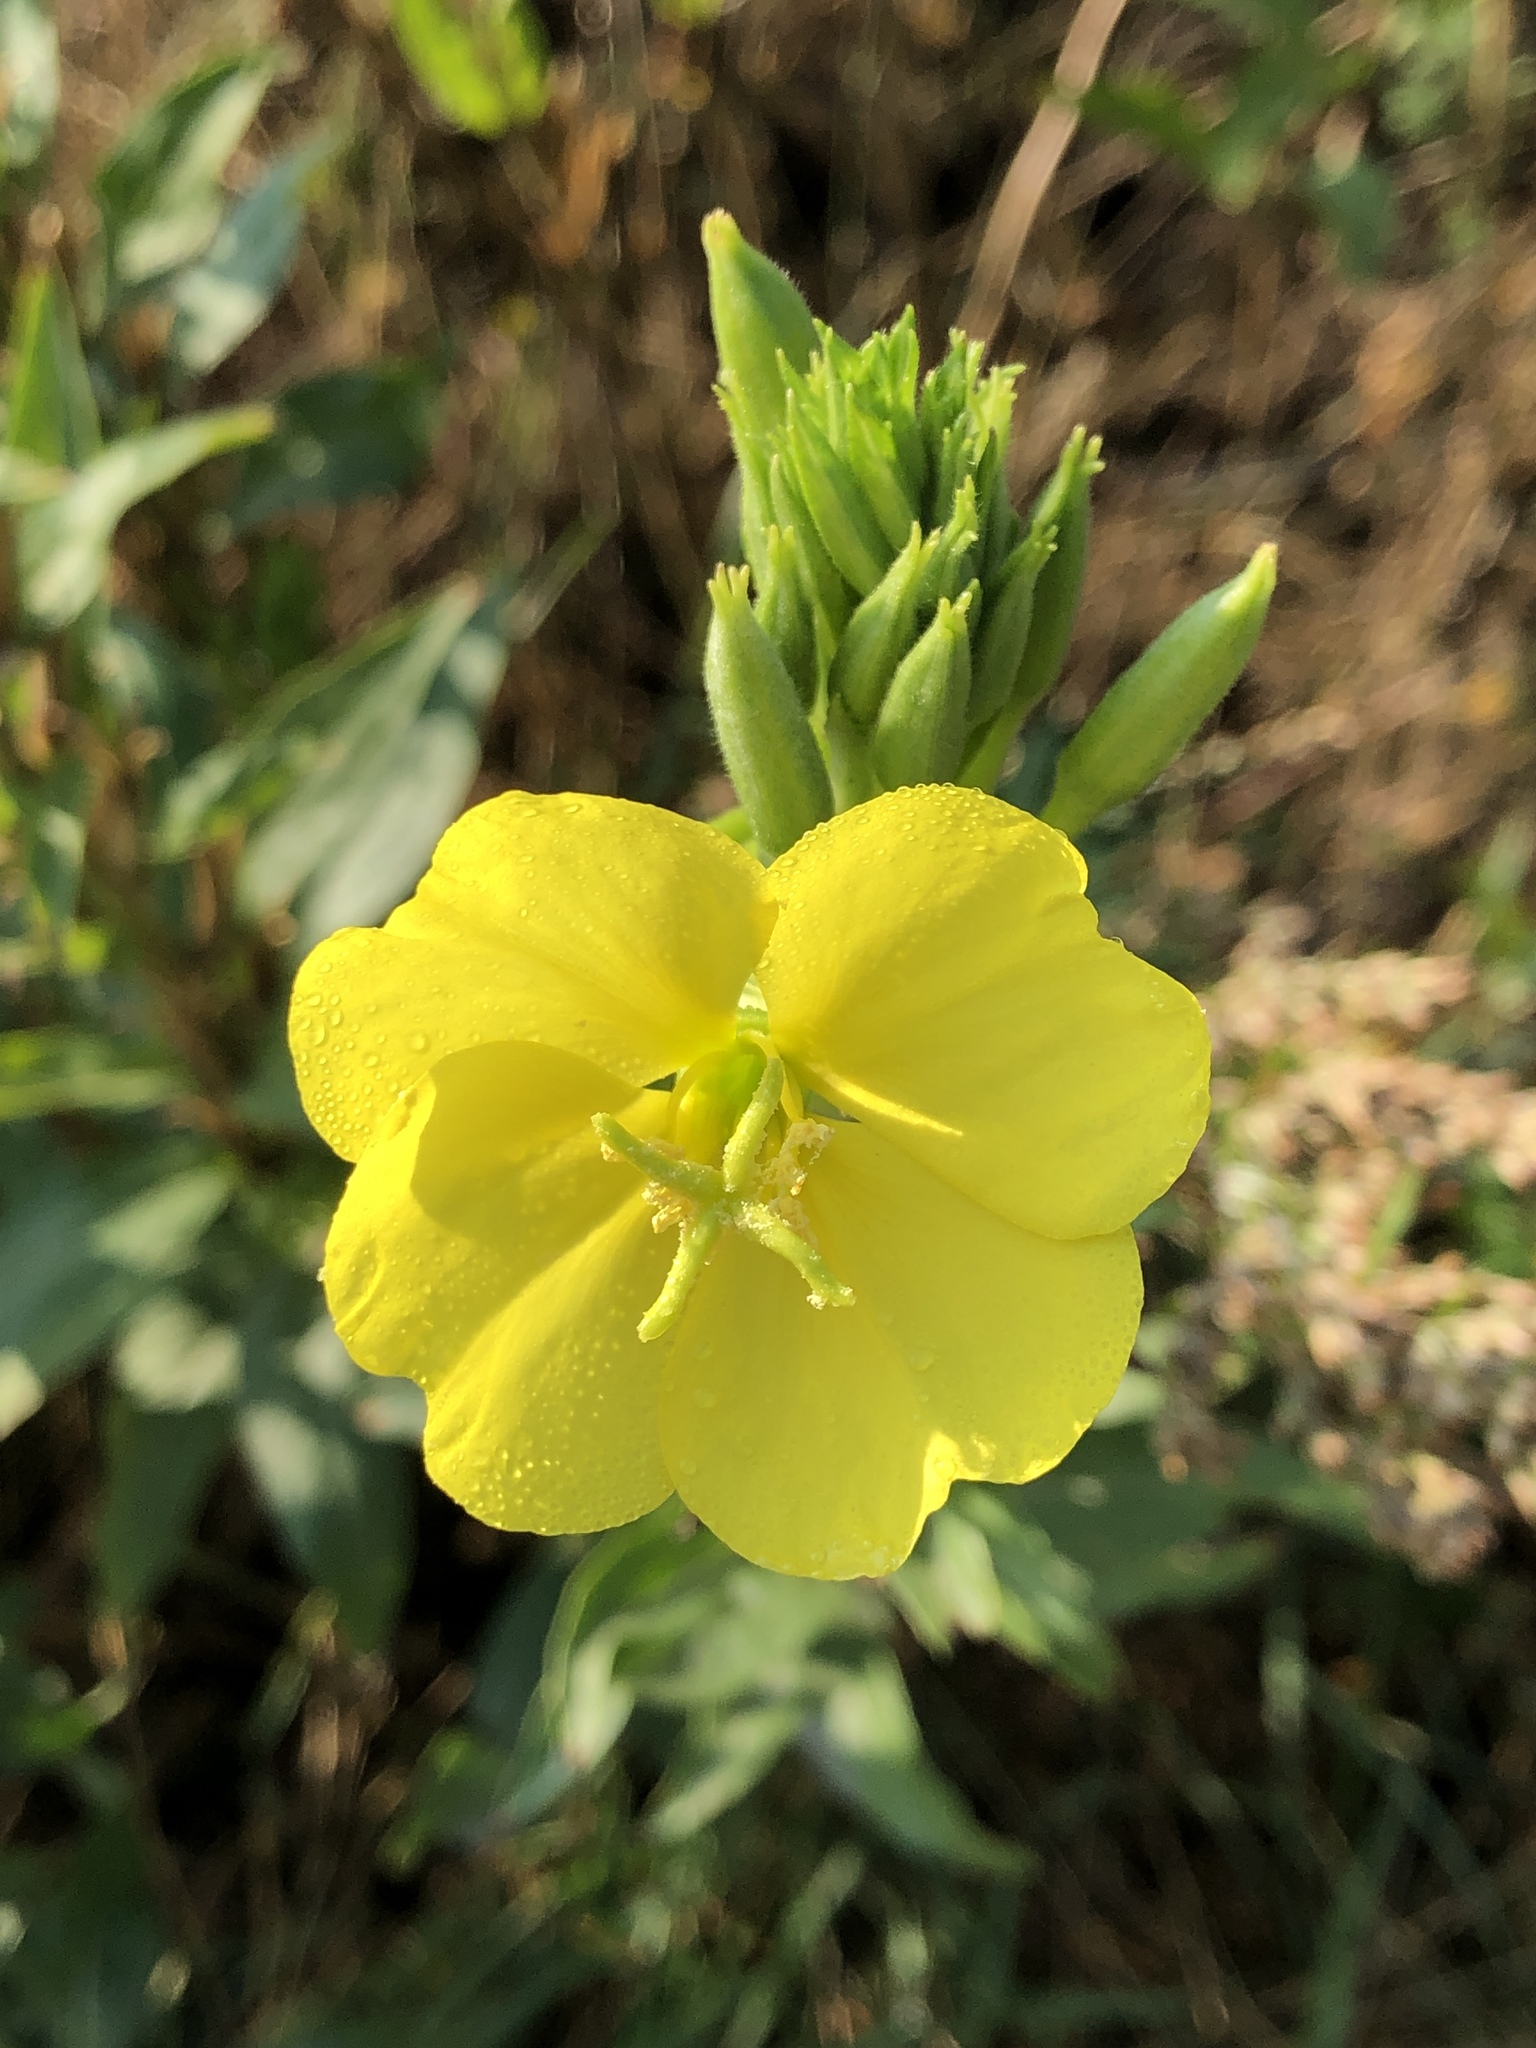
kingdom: Plantae
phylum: Tracheophyta
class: Magnoliopsida
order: Myrtales
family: Onagraceae
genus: Oenothera
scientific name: Oenothera biennis
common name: Common evening-primrose
